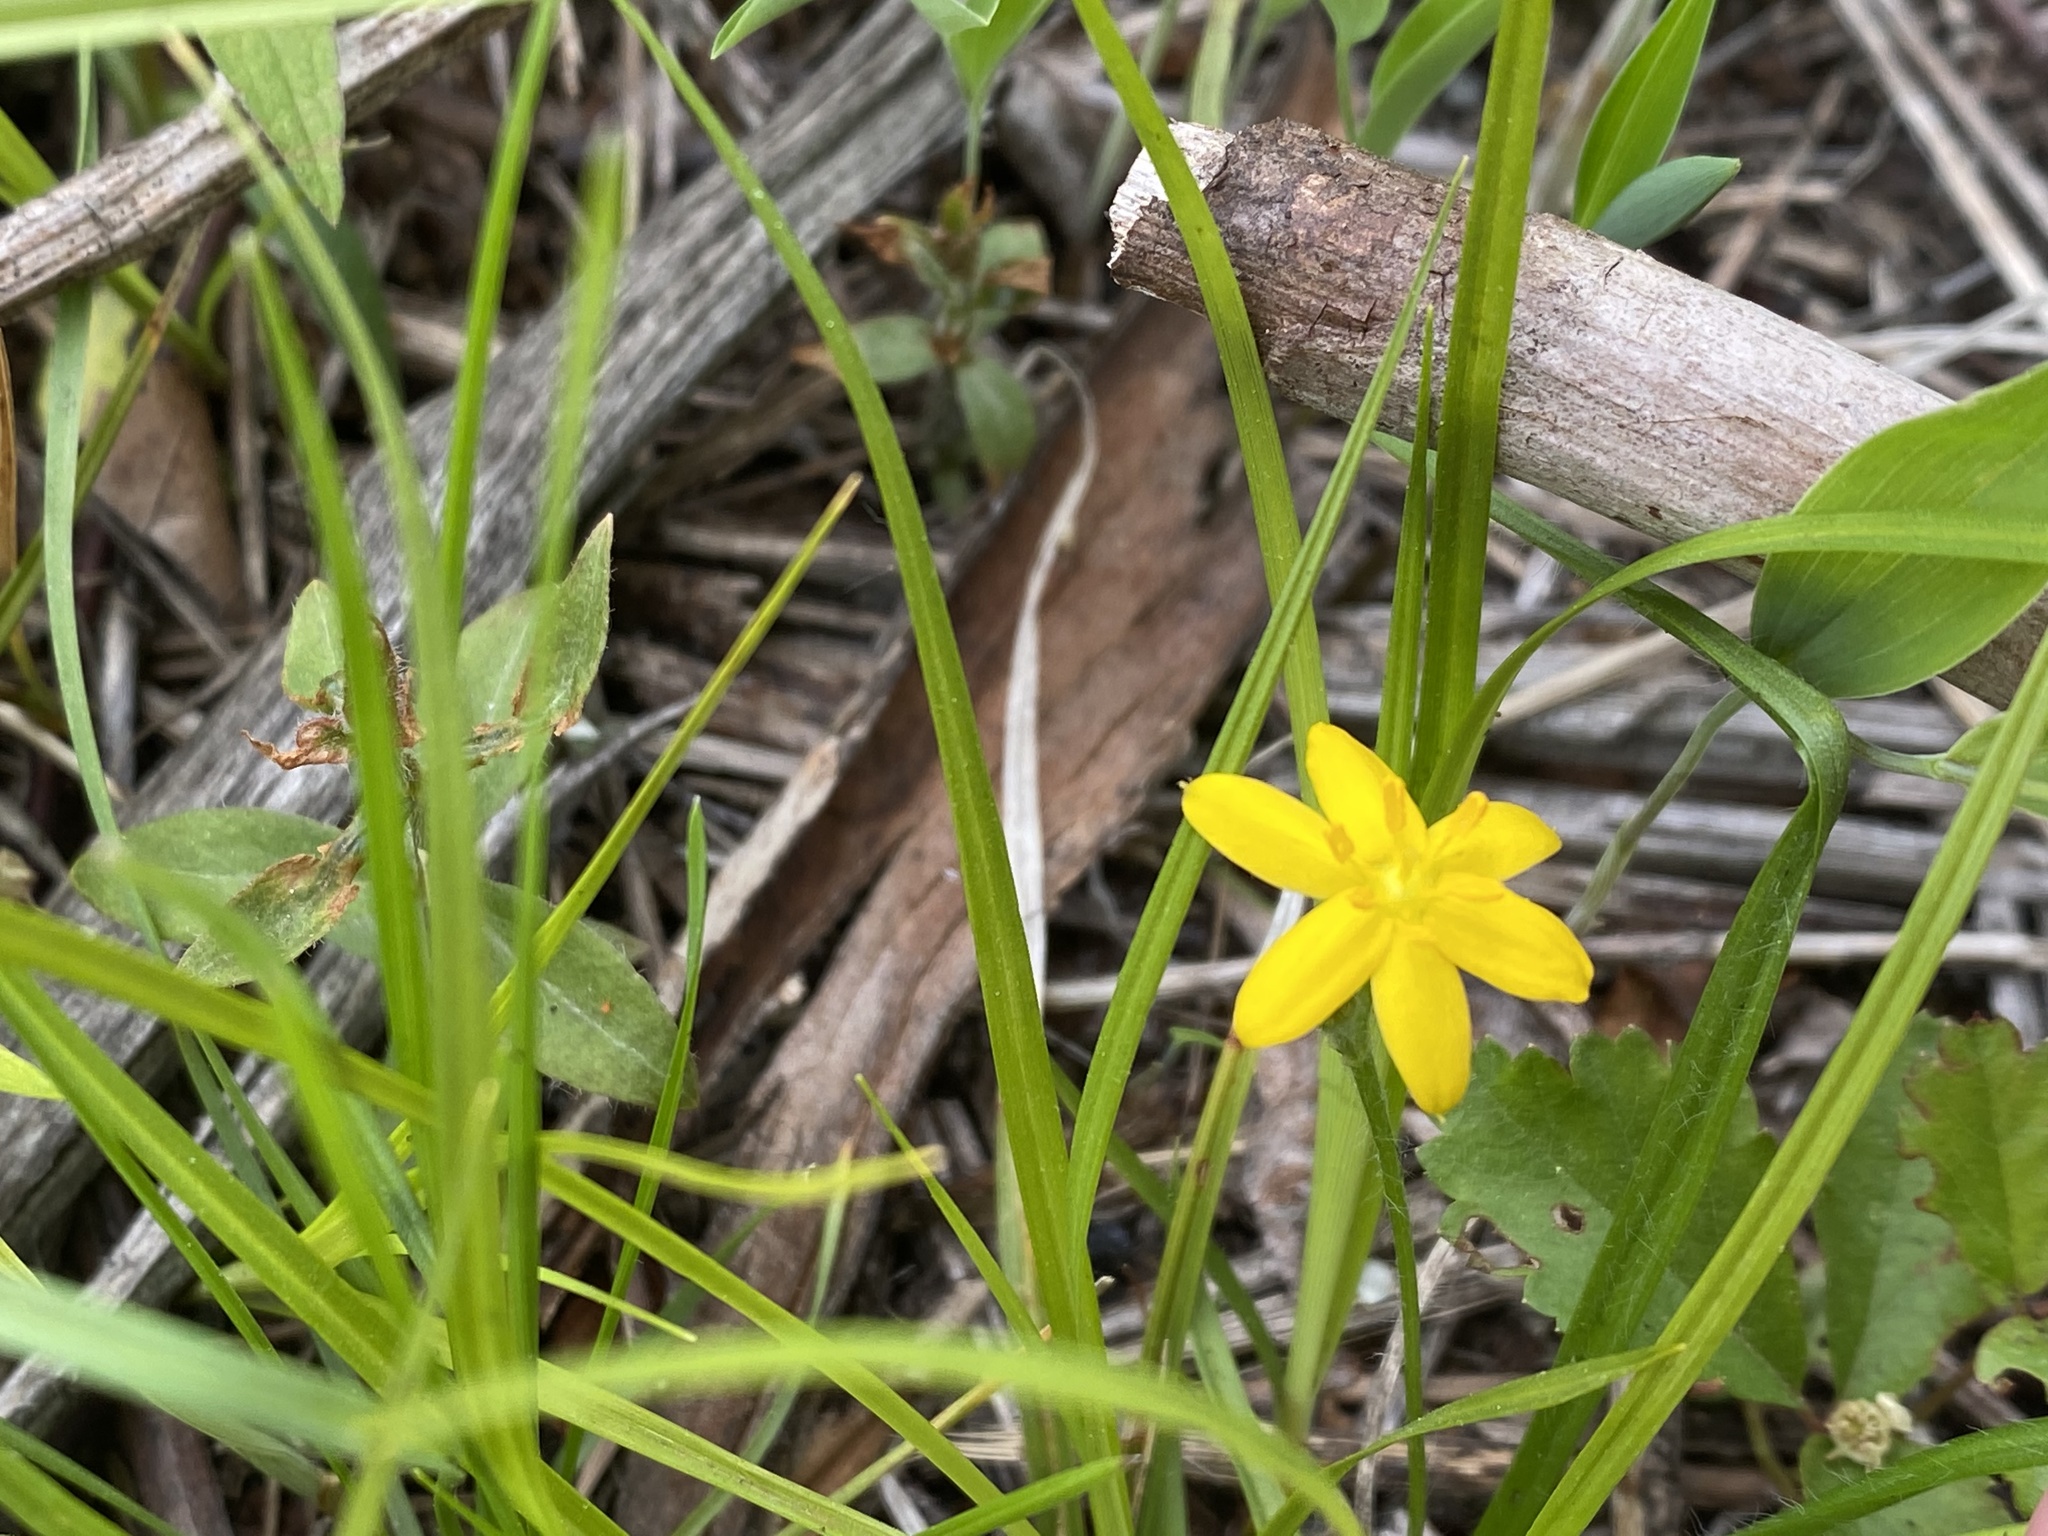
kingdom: Plantae
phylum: Tracheophyta
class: Liliopsida
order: Asparagales
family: Hypoxidaceae
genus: Hypoxis
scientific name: Hypoxis hirsuta
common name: Common goldstar
